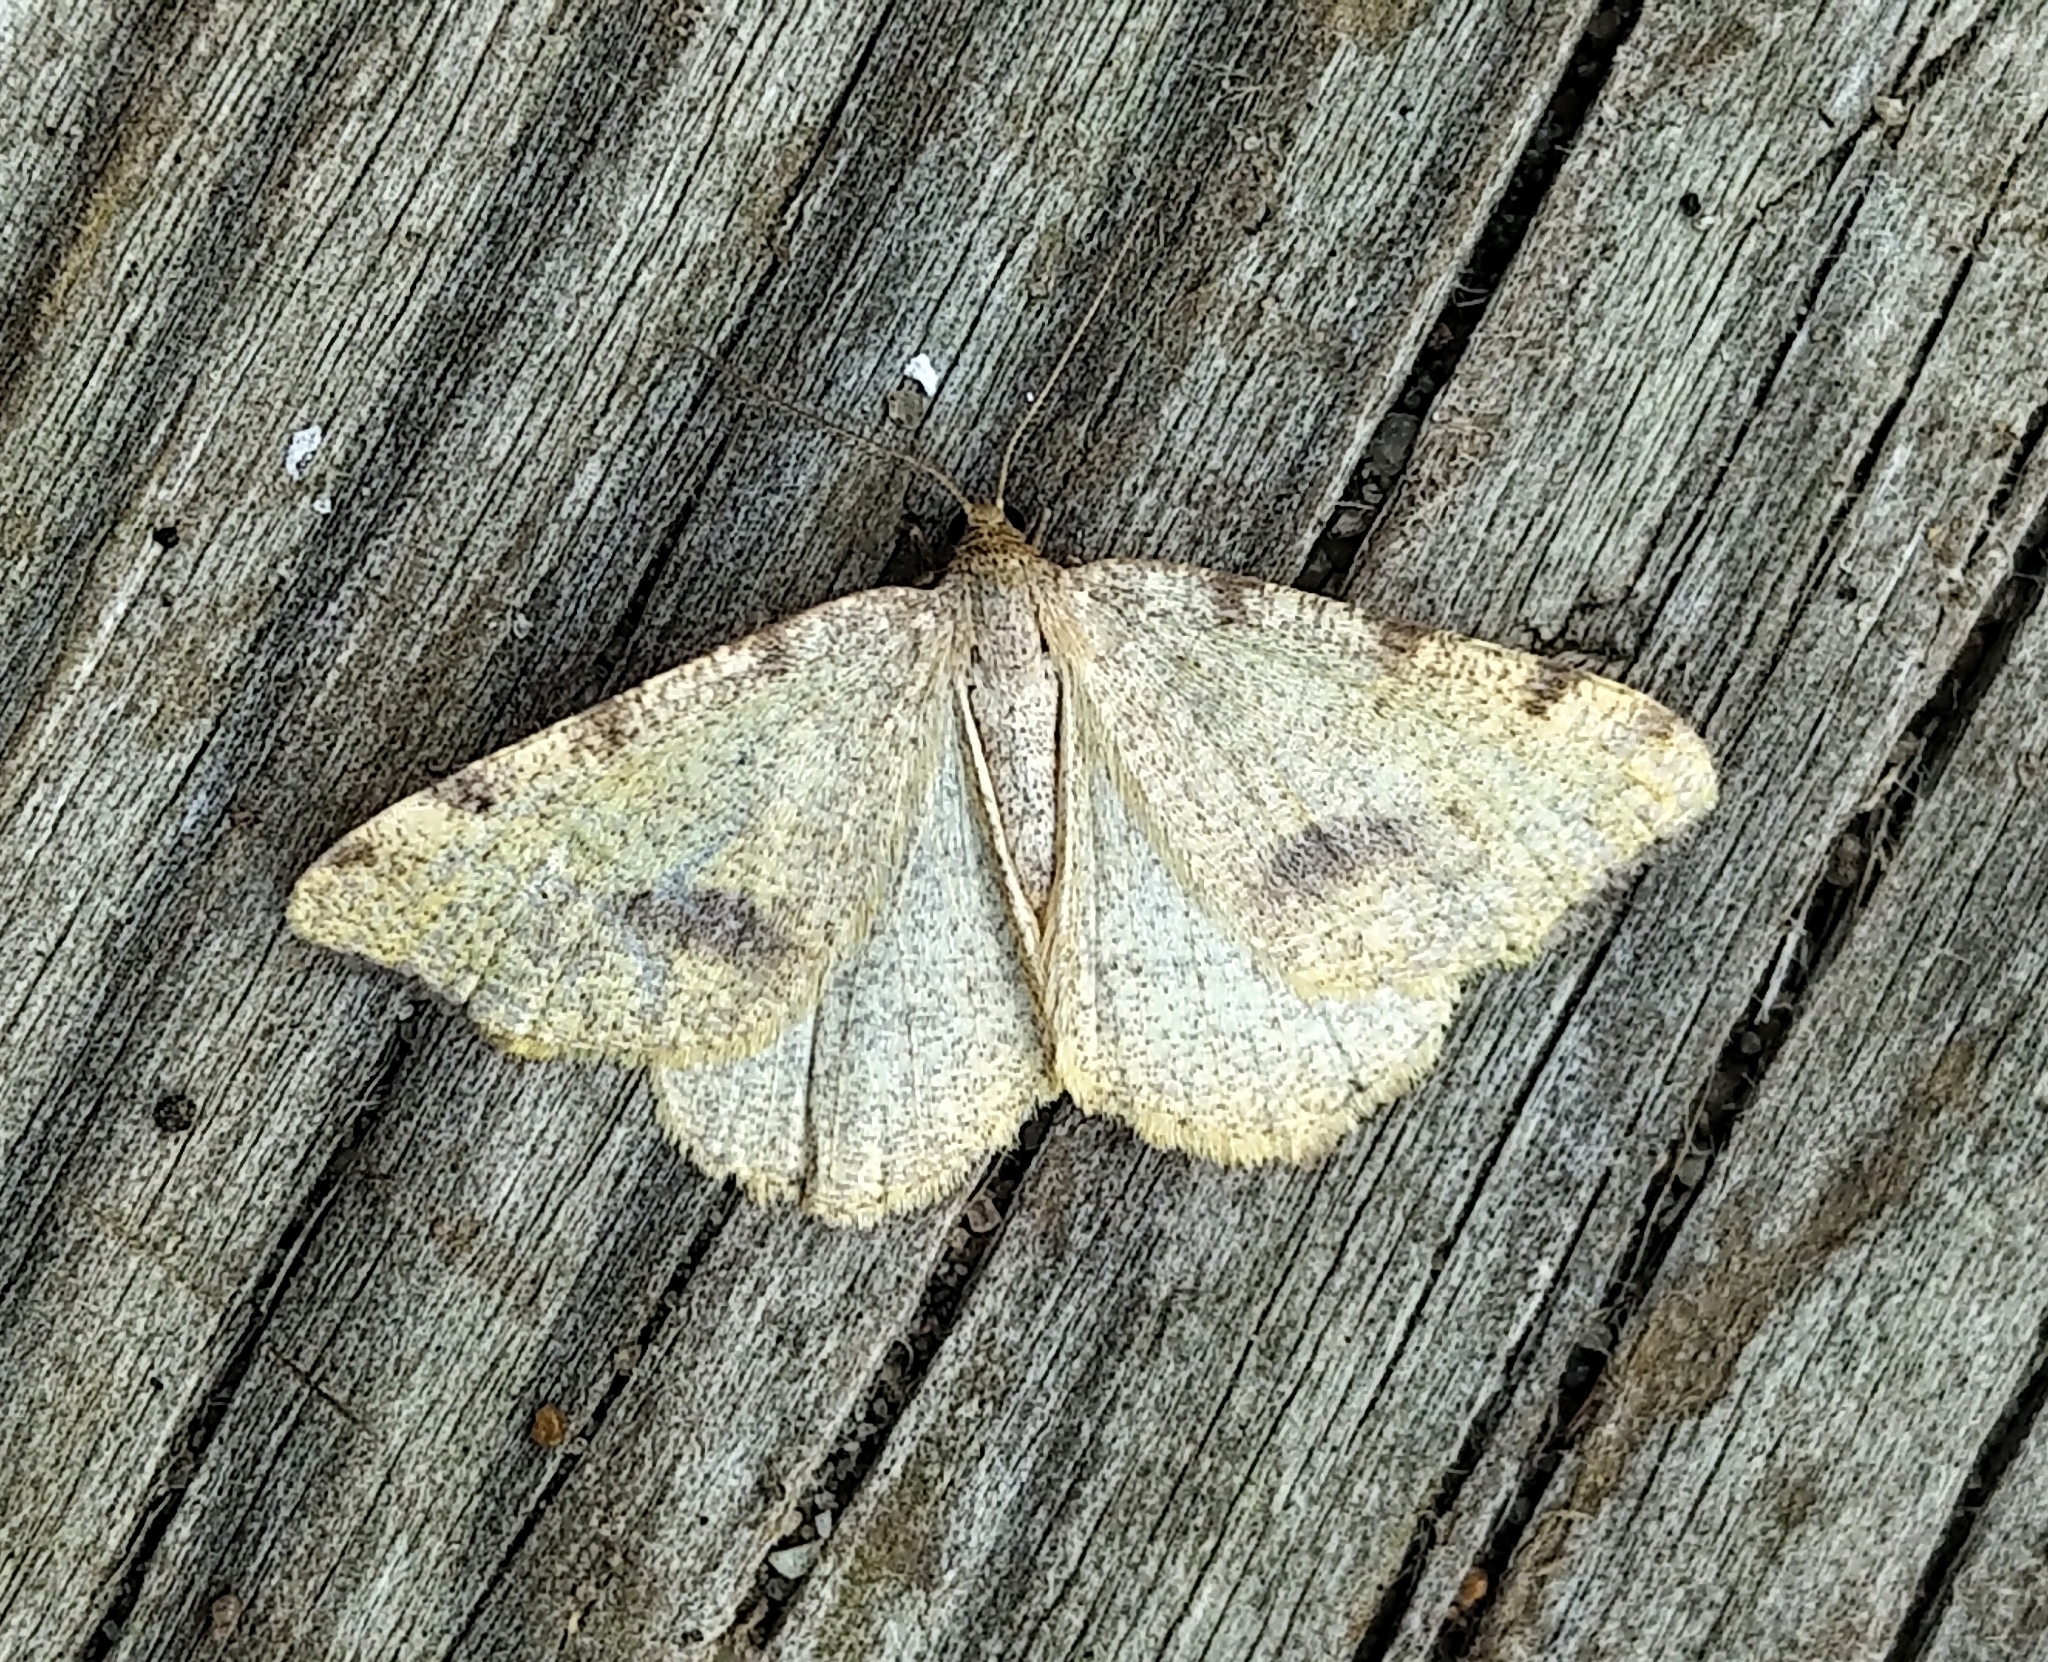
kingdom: Animalia
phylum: Arthropoda
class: Insecta
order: Lepidoptera
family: Geometridae
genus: Macaria
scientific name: Macaria occiduaria
